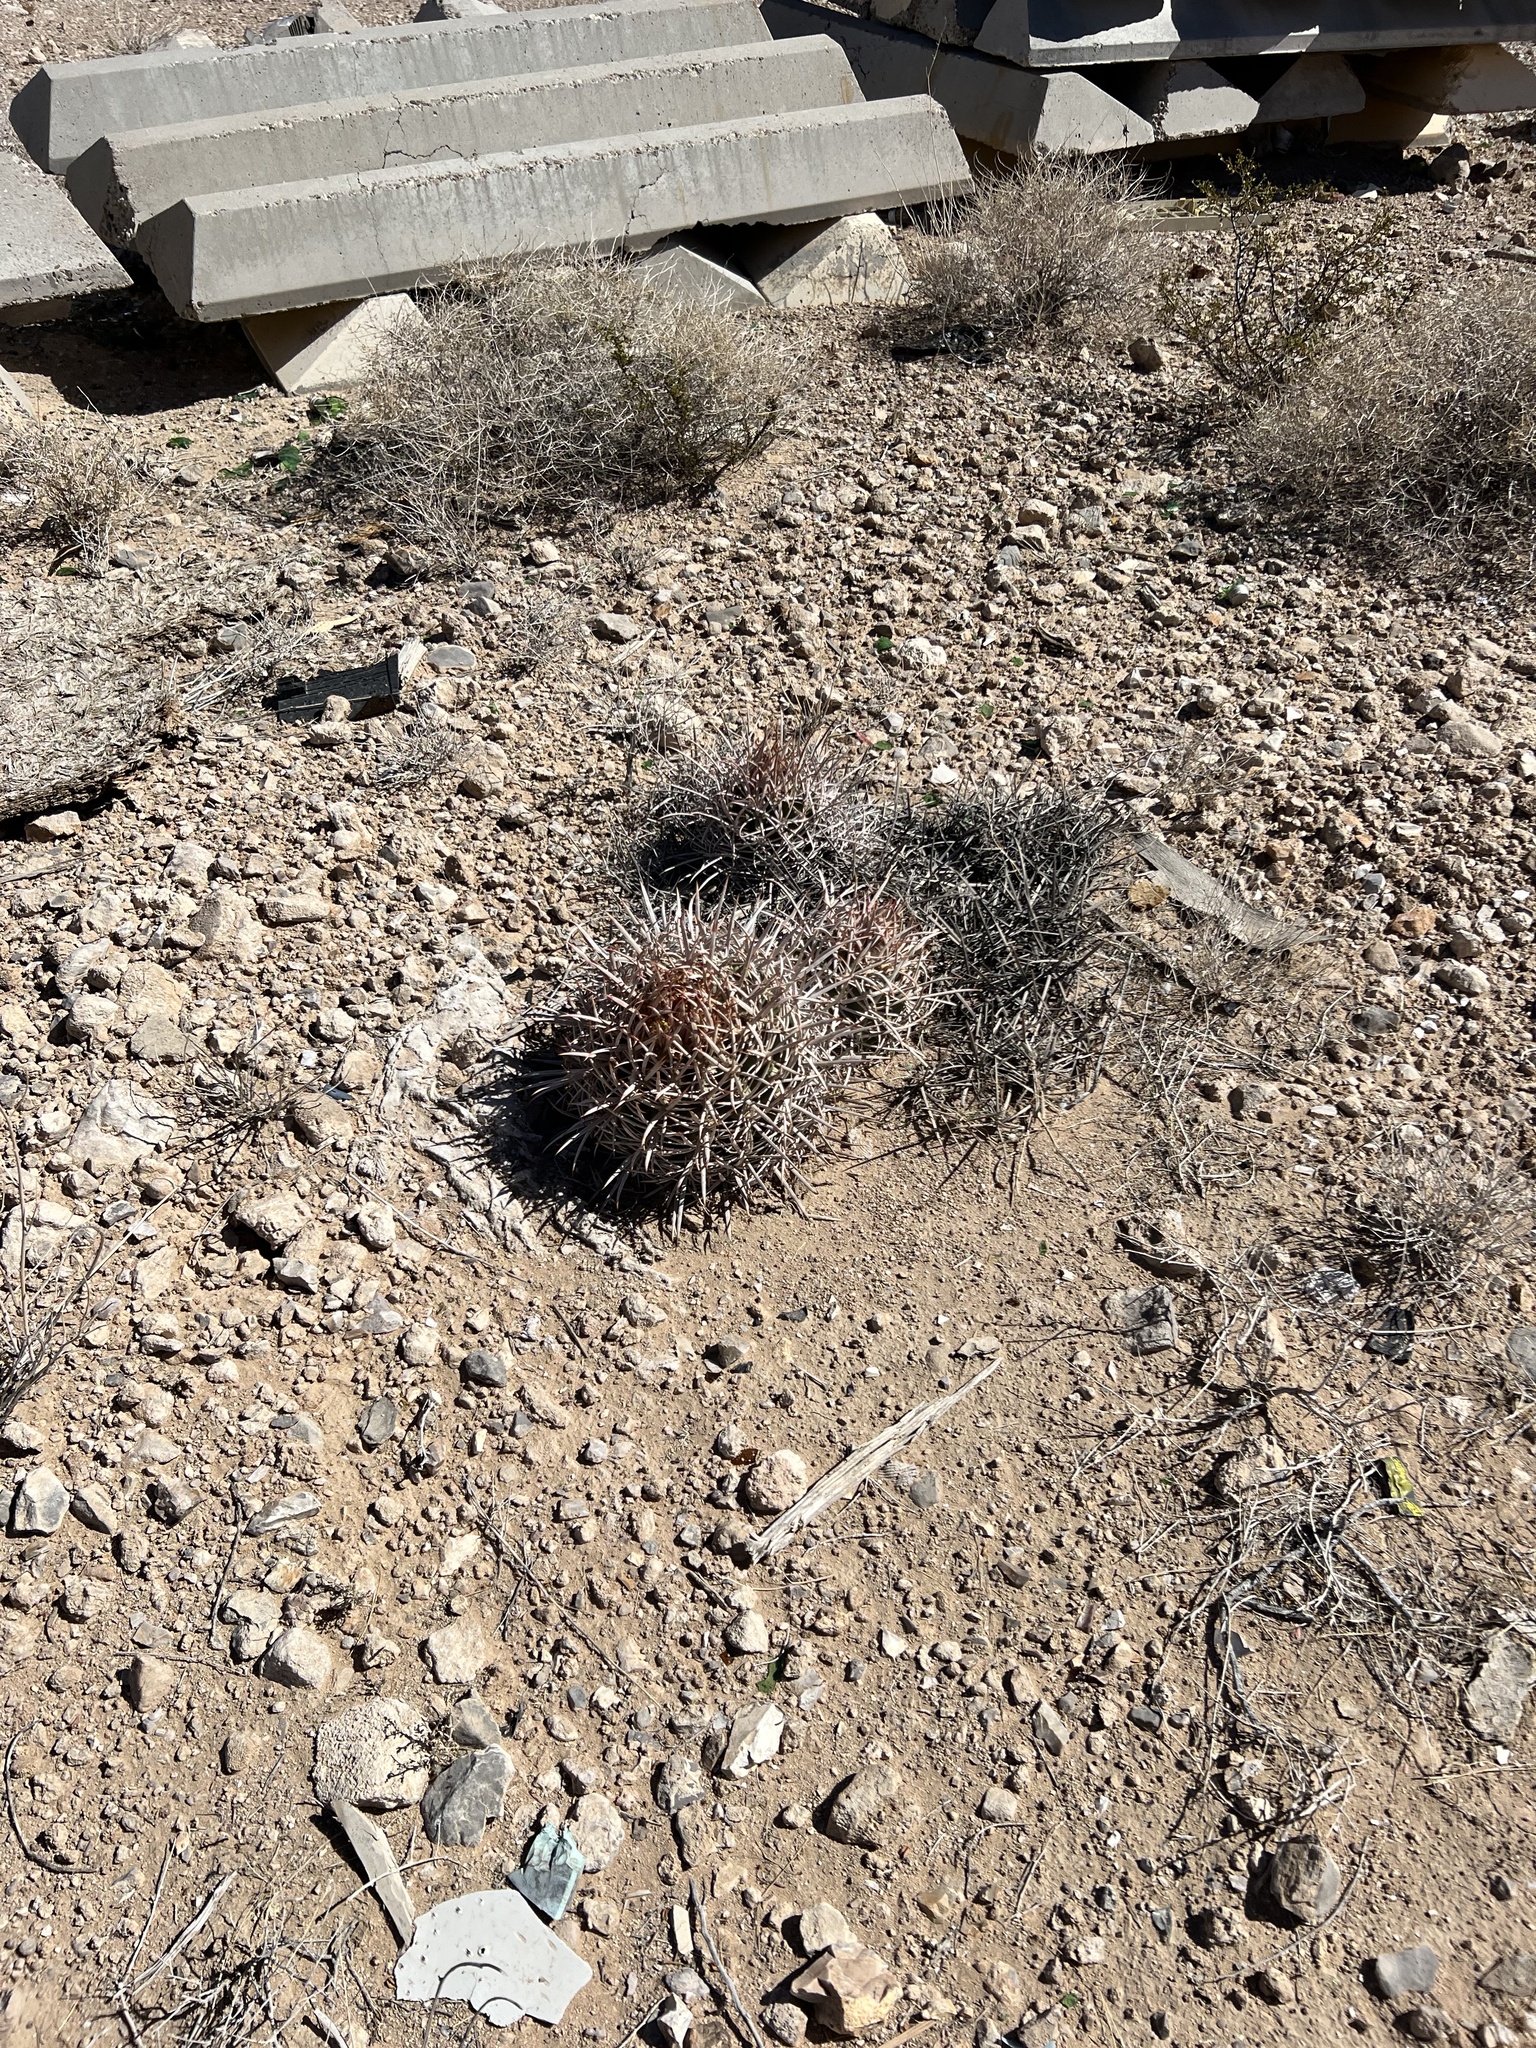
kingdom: Plantae
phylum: Tracheophyta
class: Magnoliopsida
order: Caryophyllales
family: Cactaceae
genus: Echinocactus
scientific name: Echinocactus polycephalus
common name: Cottontop cactus
